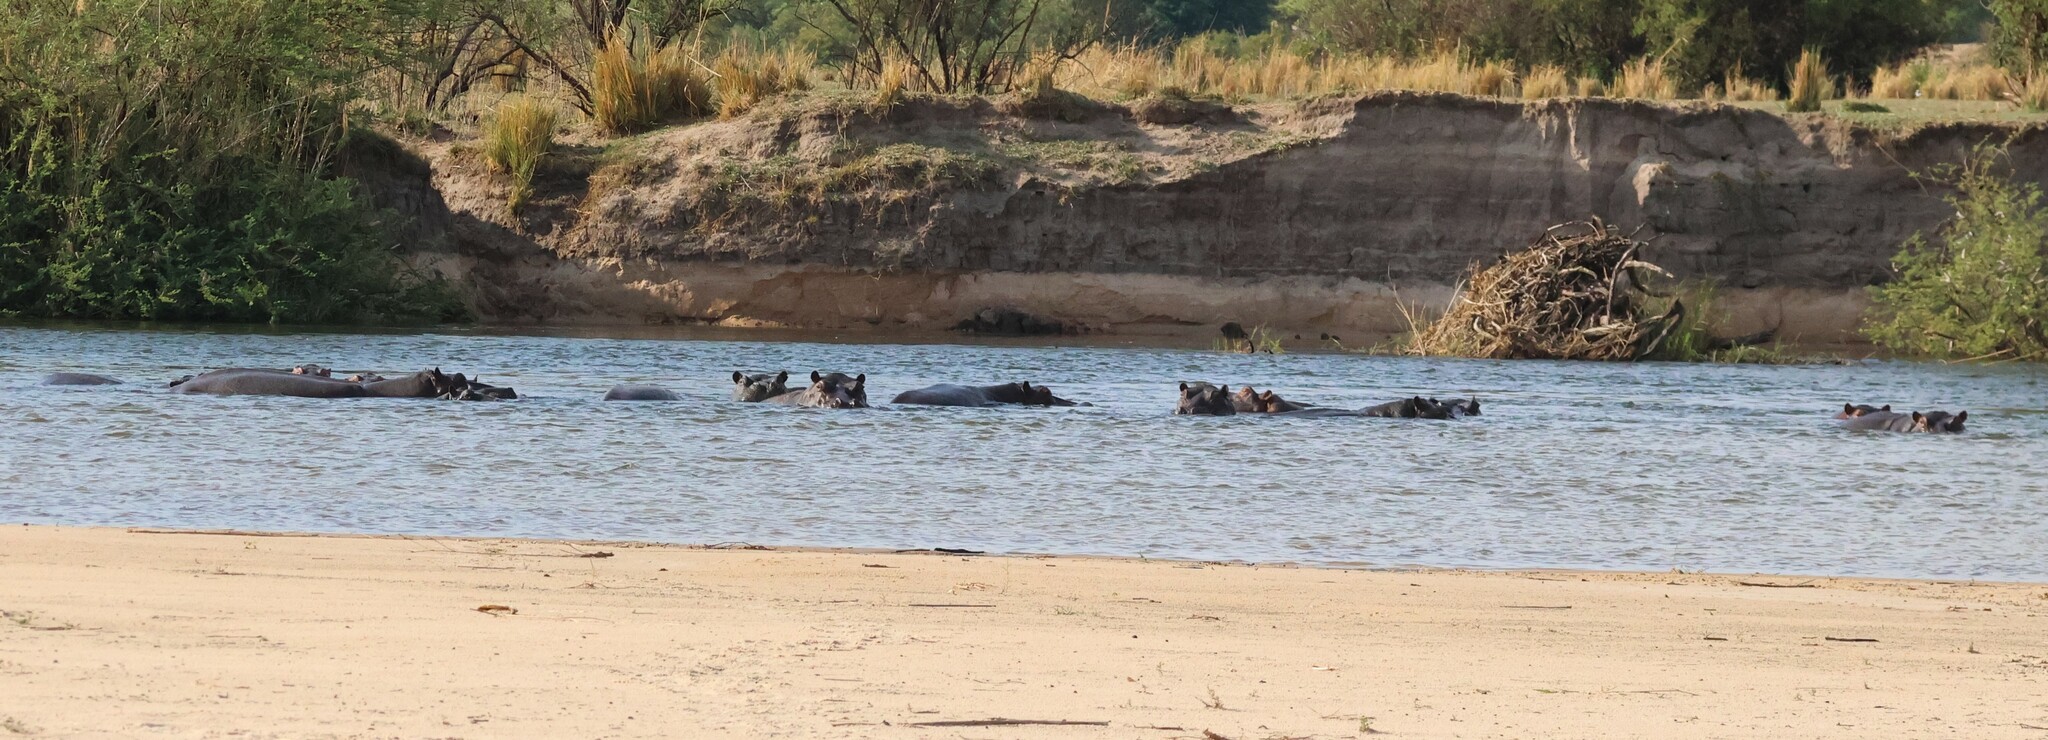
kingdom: Animalia
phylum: Chordata
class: Mammalia
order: Artiodactyla
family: Hippopotamidae
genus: Hippopotamus
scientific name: Hippopotamus amphibius
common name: Common hippopotamus
